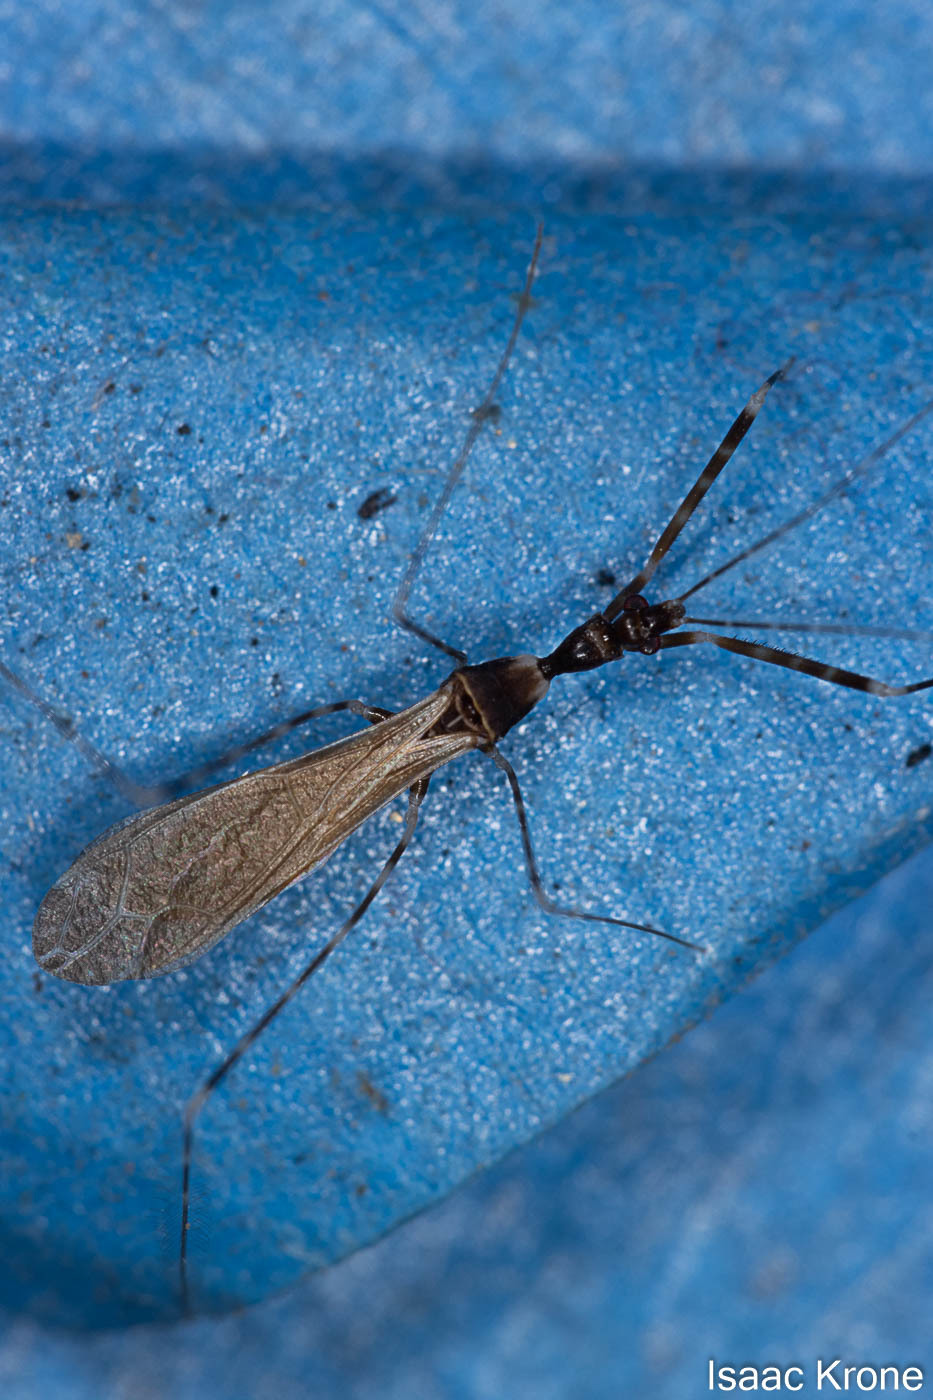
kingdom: Animalia
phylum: Arthropoda
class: Insecta
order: Hemiptera
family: Reduviidae
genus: Stenolemoides
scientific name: Stenolemoides arizonensis
